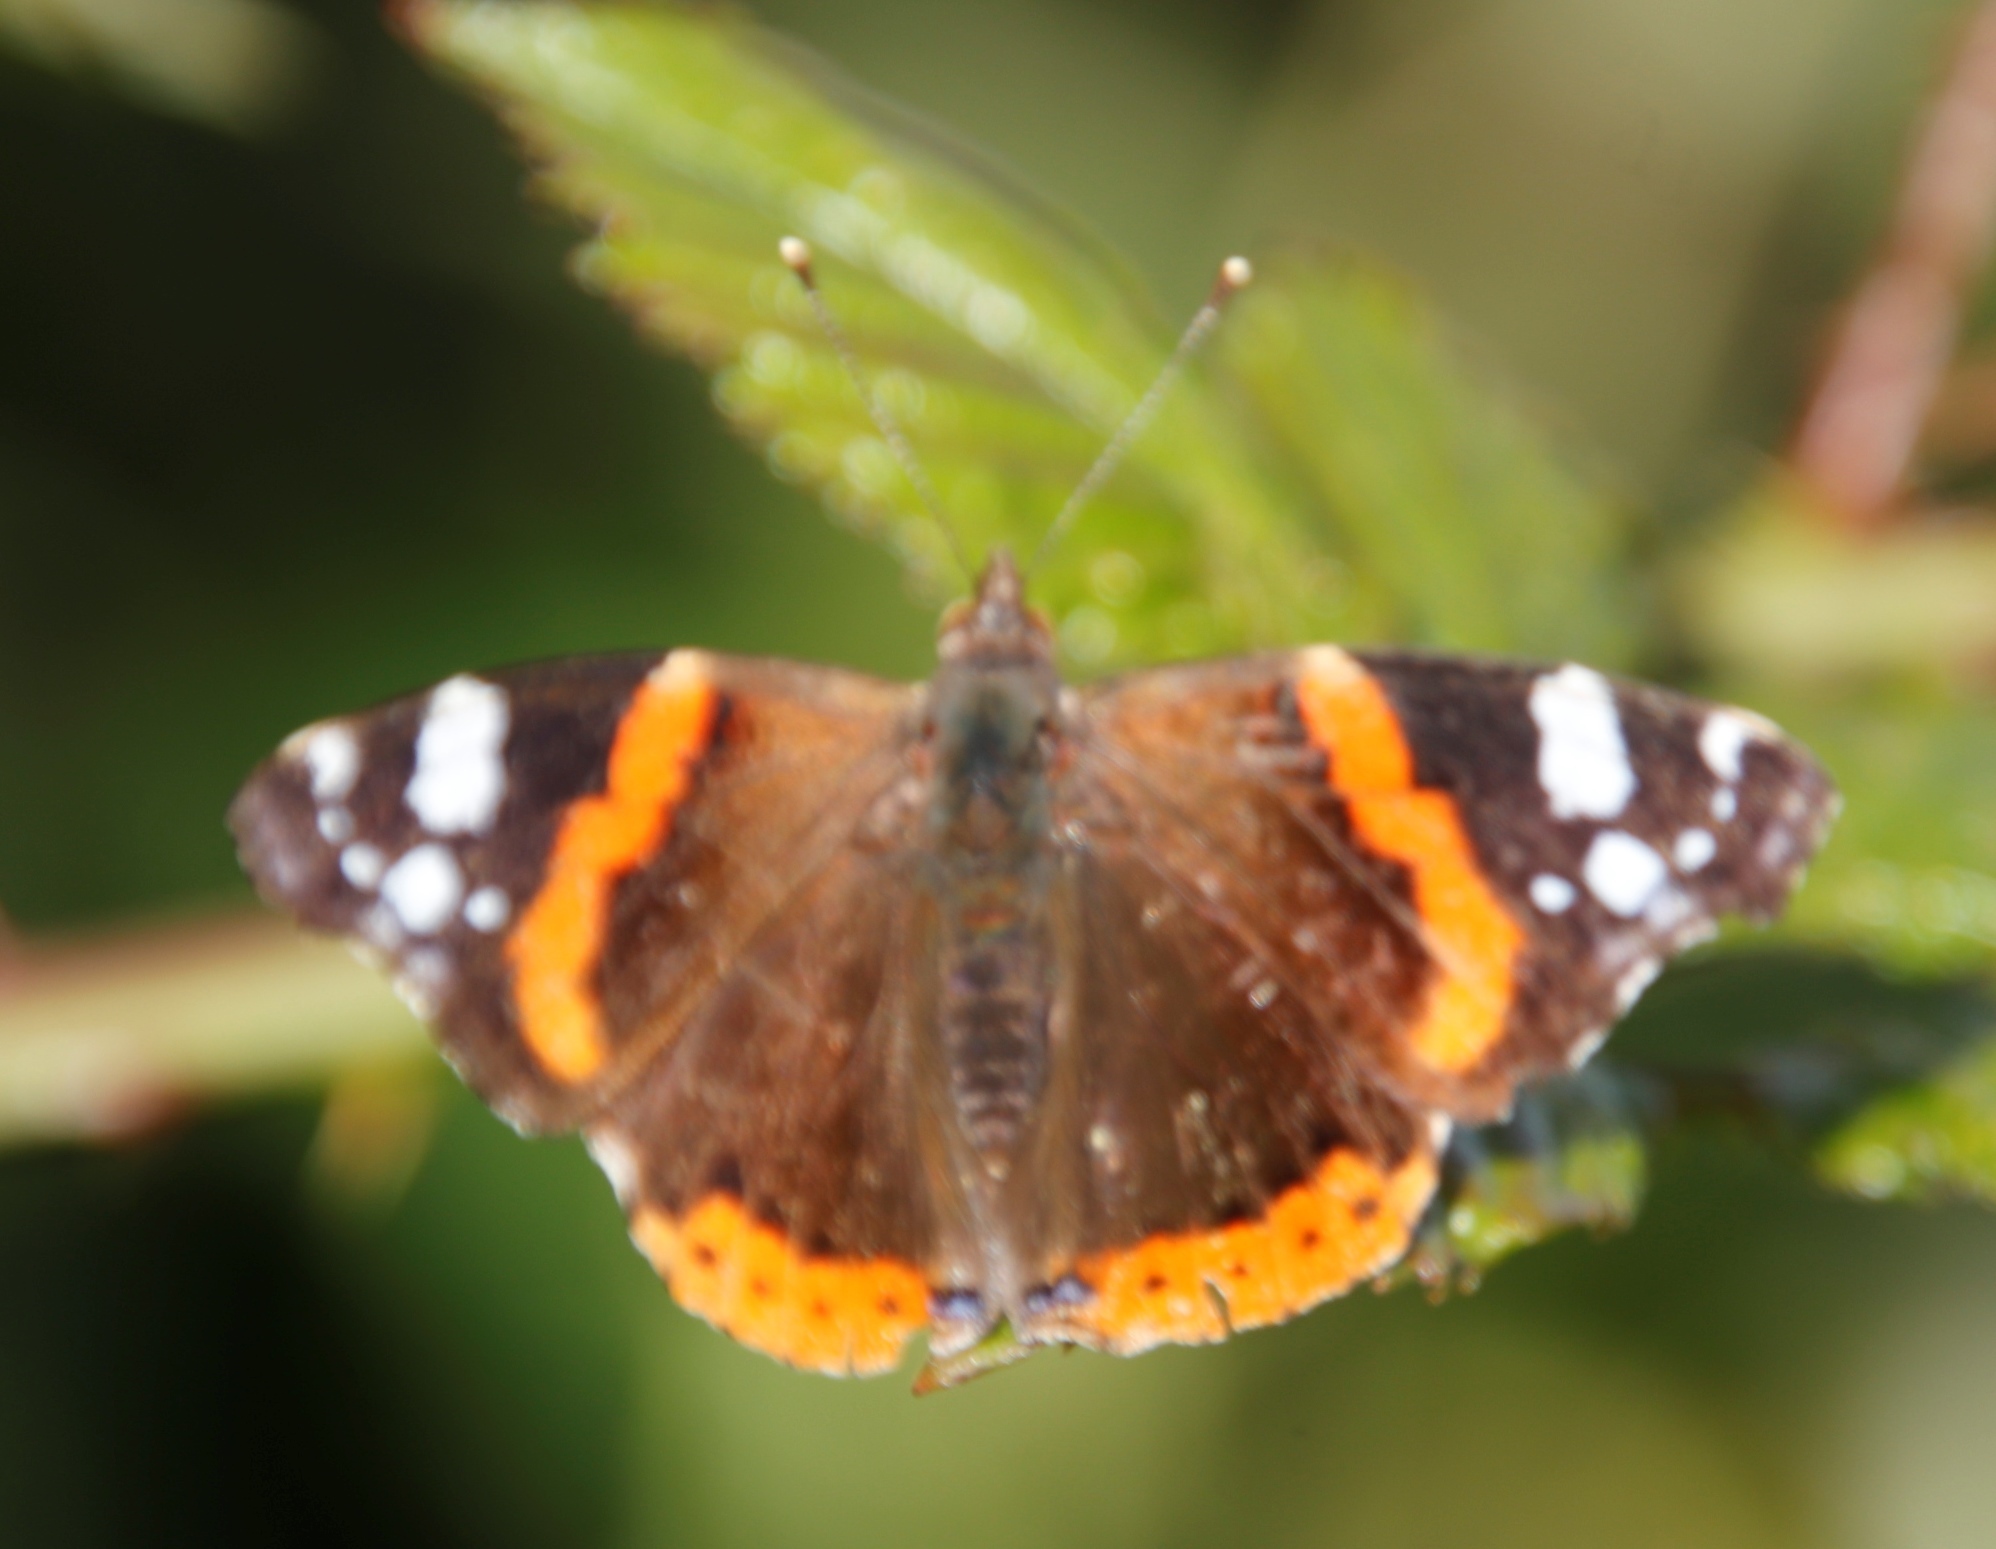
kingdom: Animalia
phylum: Arthropoda
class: Insecta
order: Lepidoptera
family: Nymphalidae
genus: Vanessa
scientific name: Vanessa atalanta
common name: Red admiral
